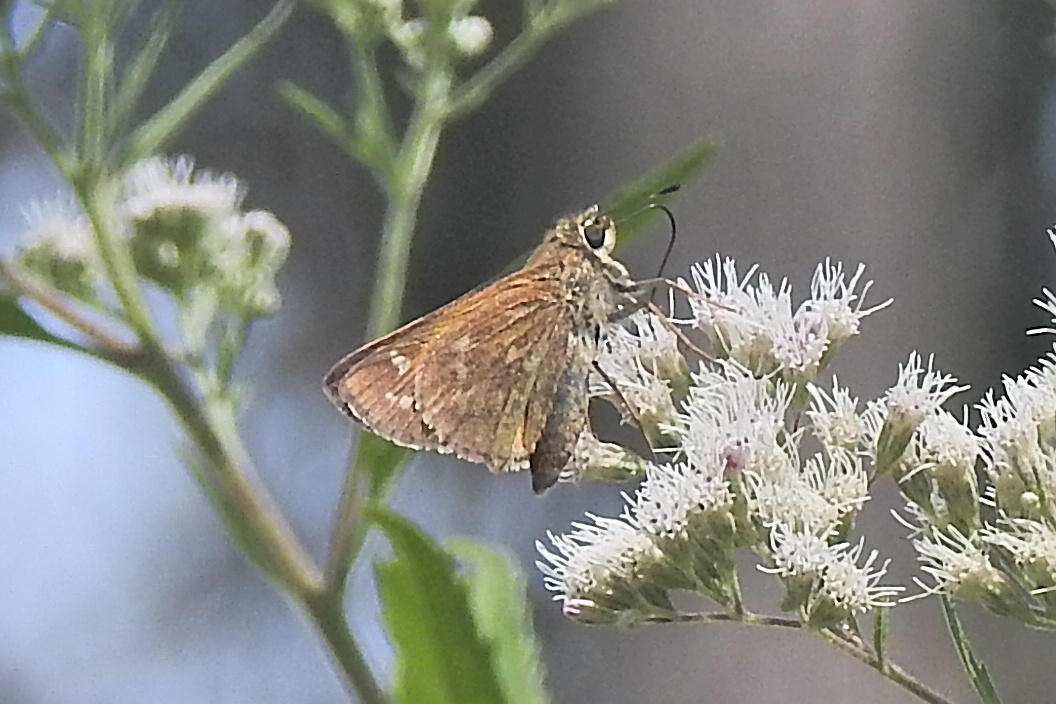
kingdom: Animalia
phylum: Arthropoda
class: Insecta
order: Lepidoptera
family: Hesperiidae
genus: Atalopedes
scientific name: Atalopedes
